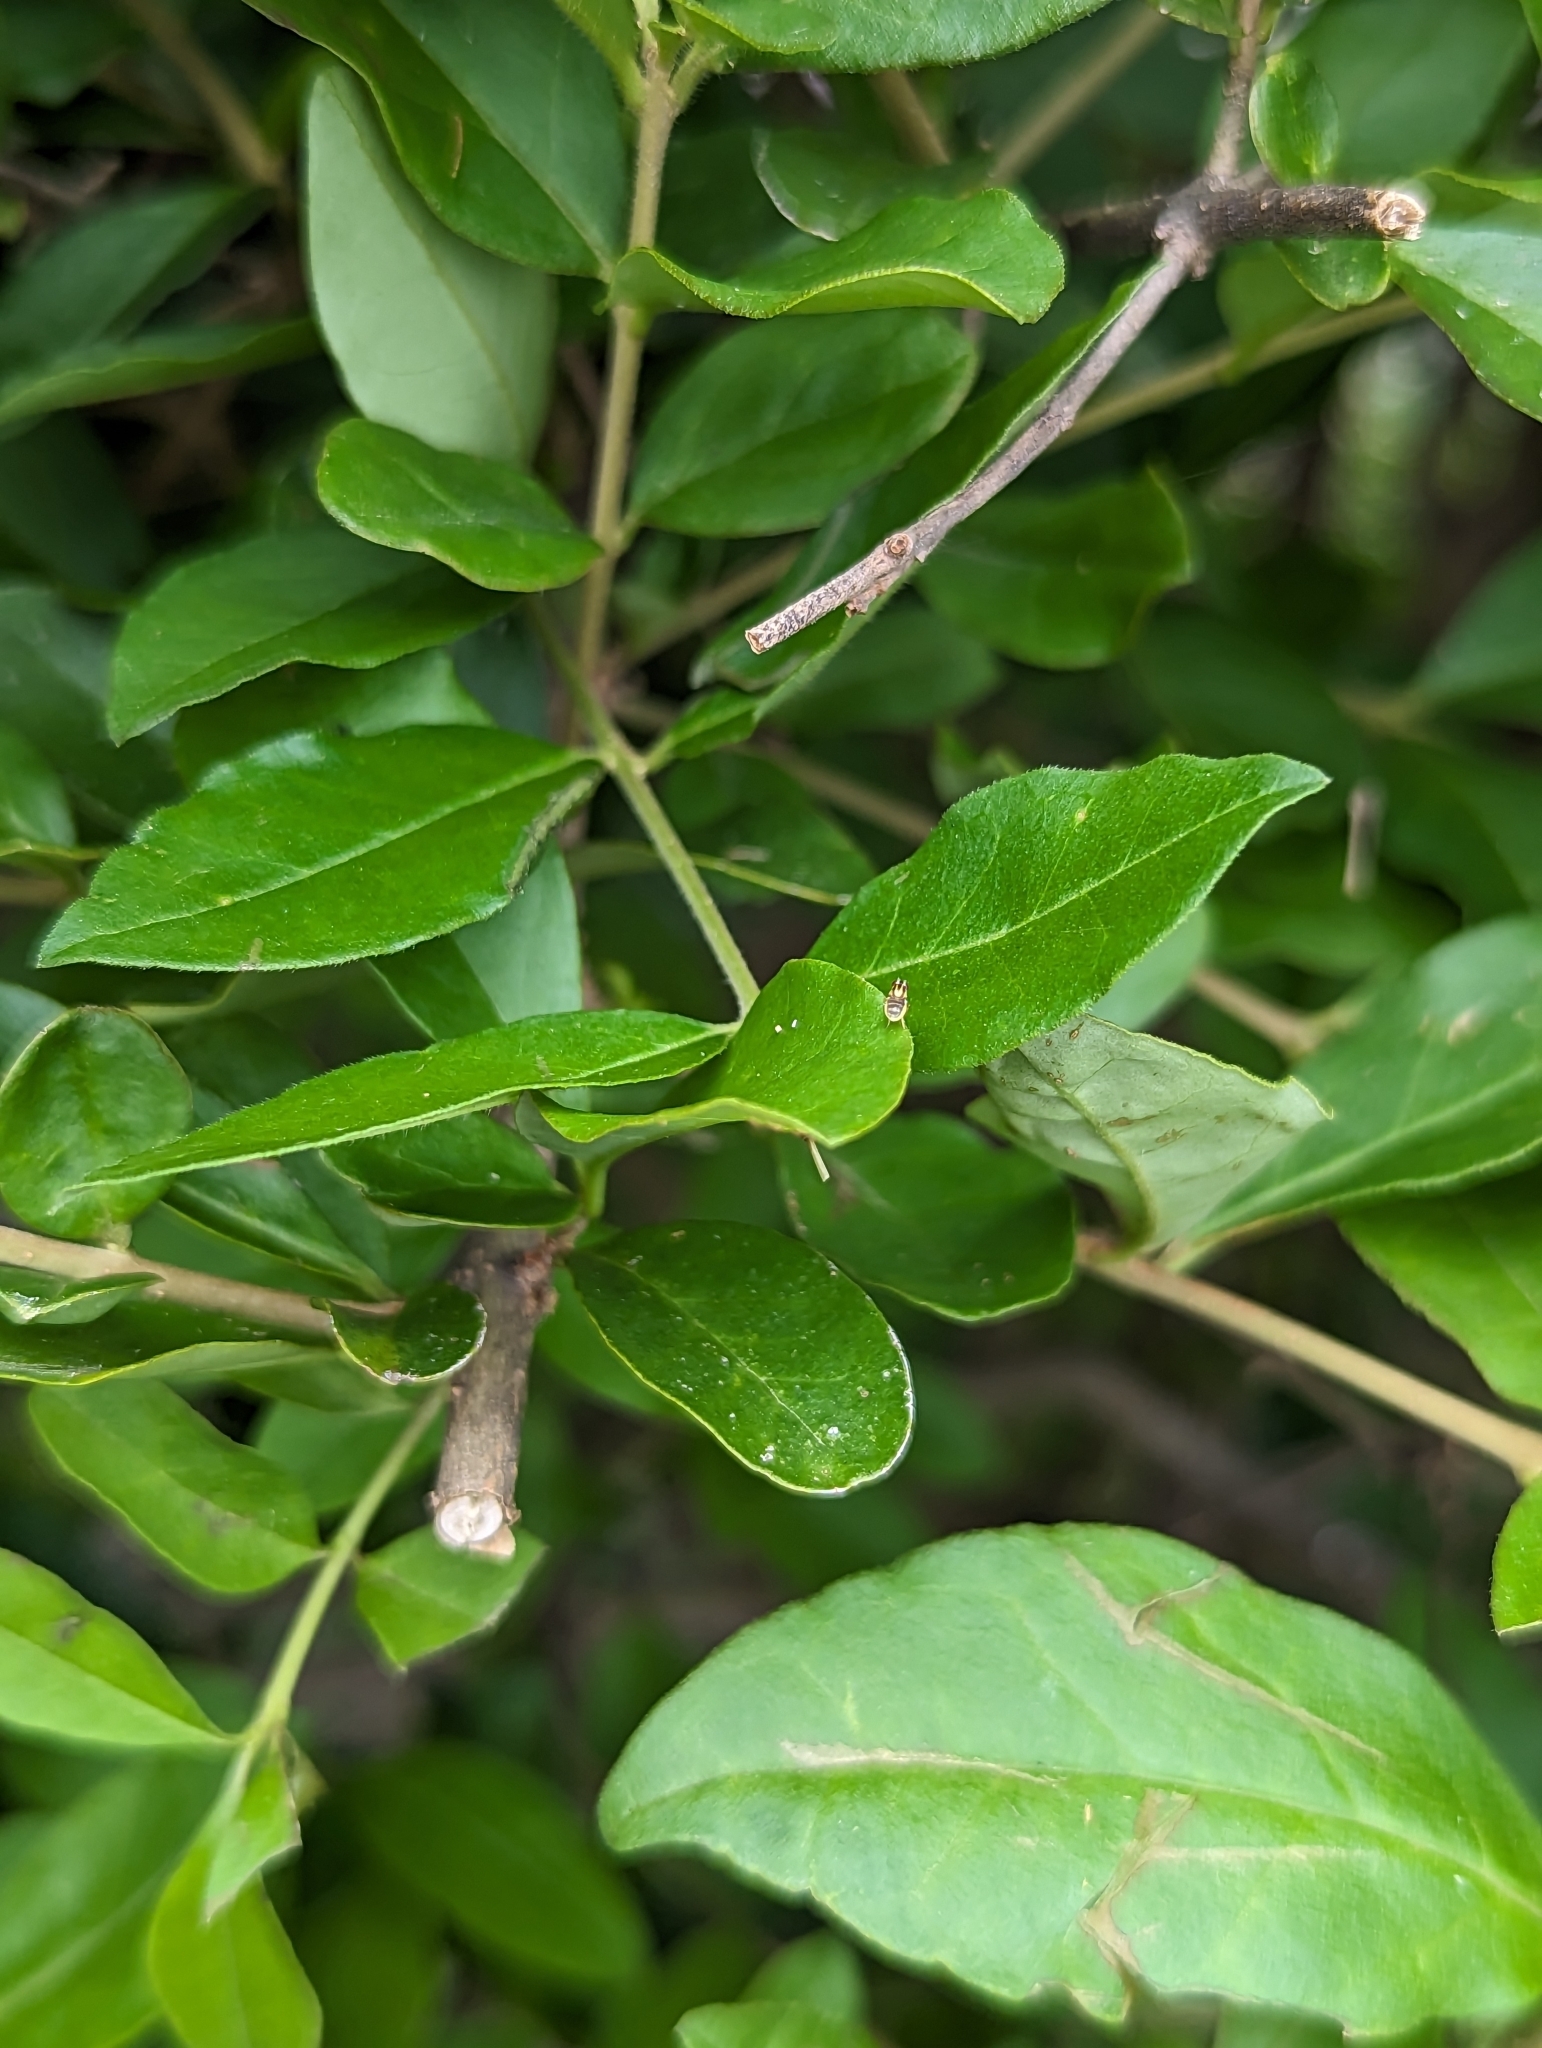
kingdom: Animalia
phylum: Arthropoda
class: Insecta
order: Diptera
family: Chloropidae
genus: Thaumatomyia
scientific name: Thaumatomyia glabra
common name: Chloropid fly
